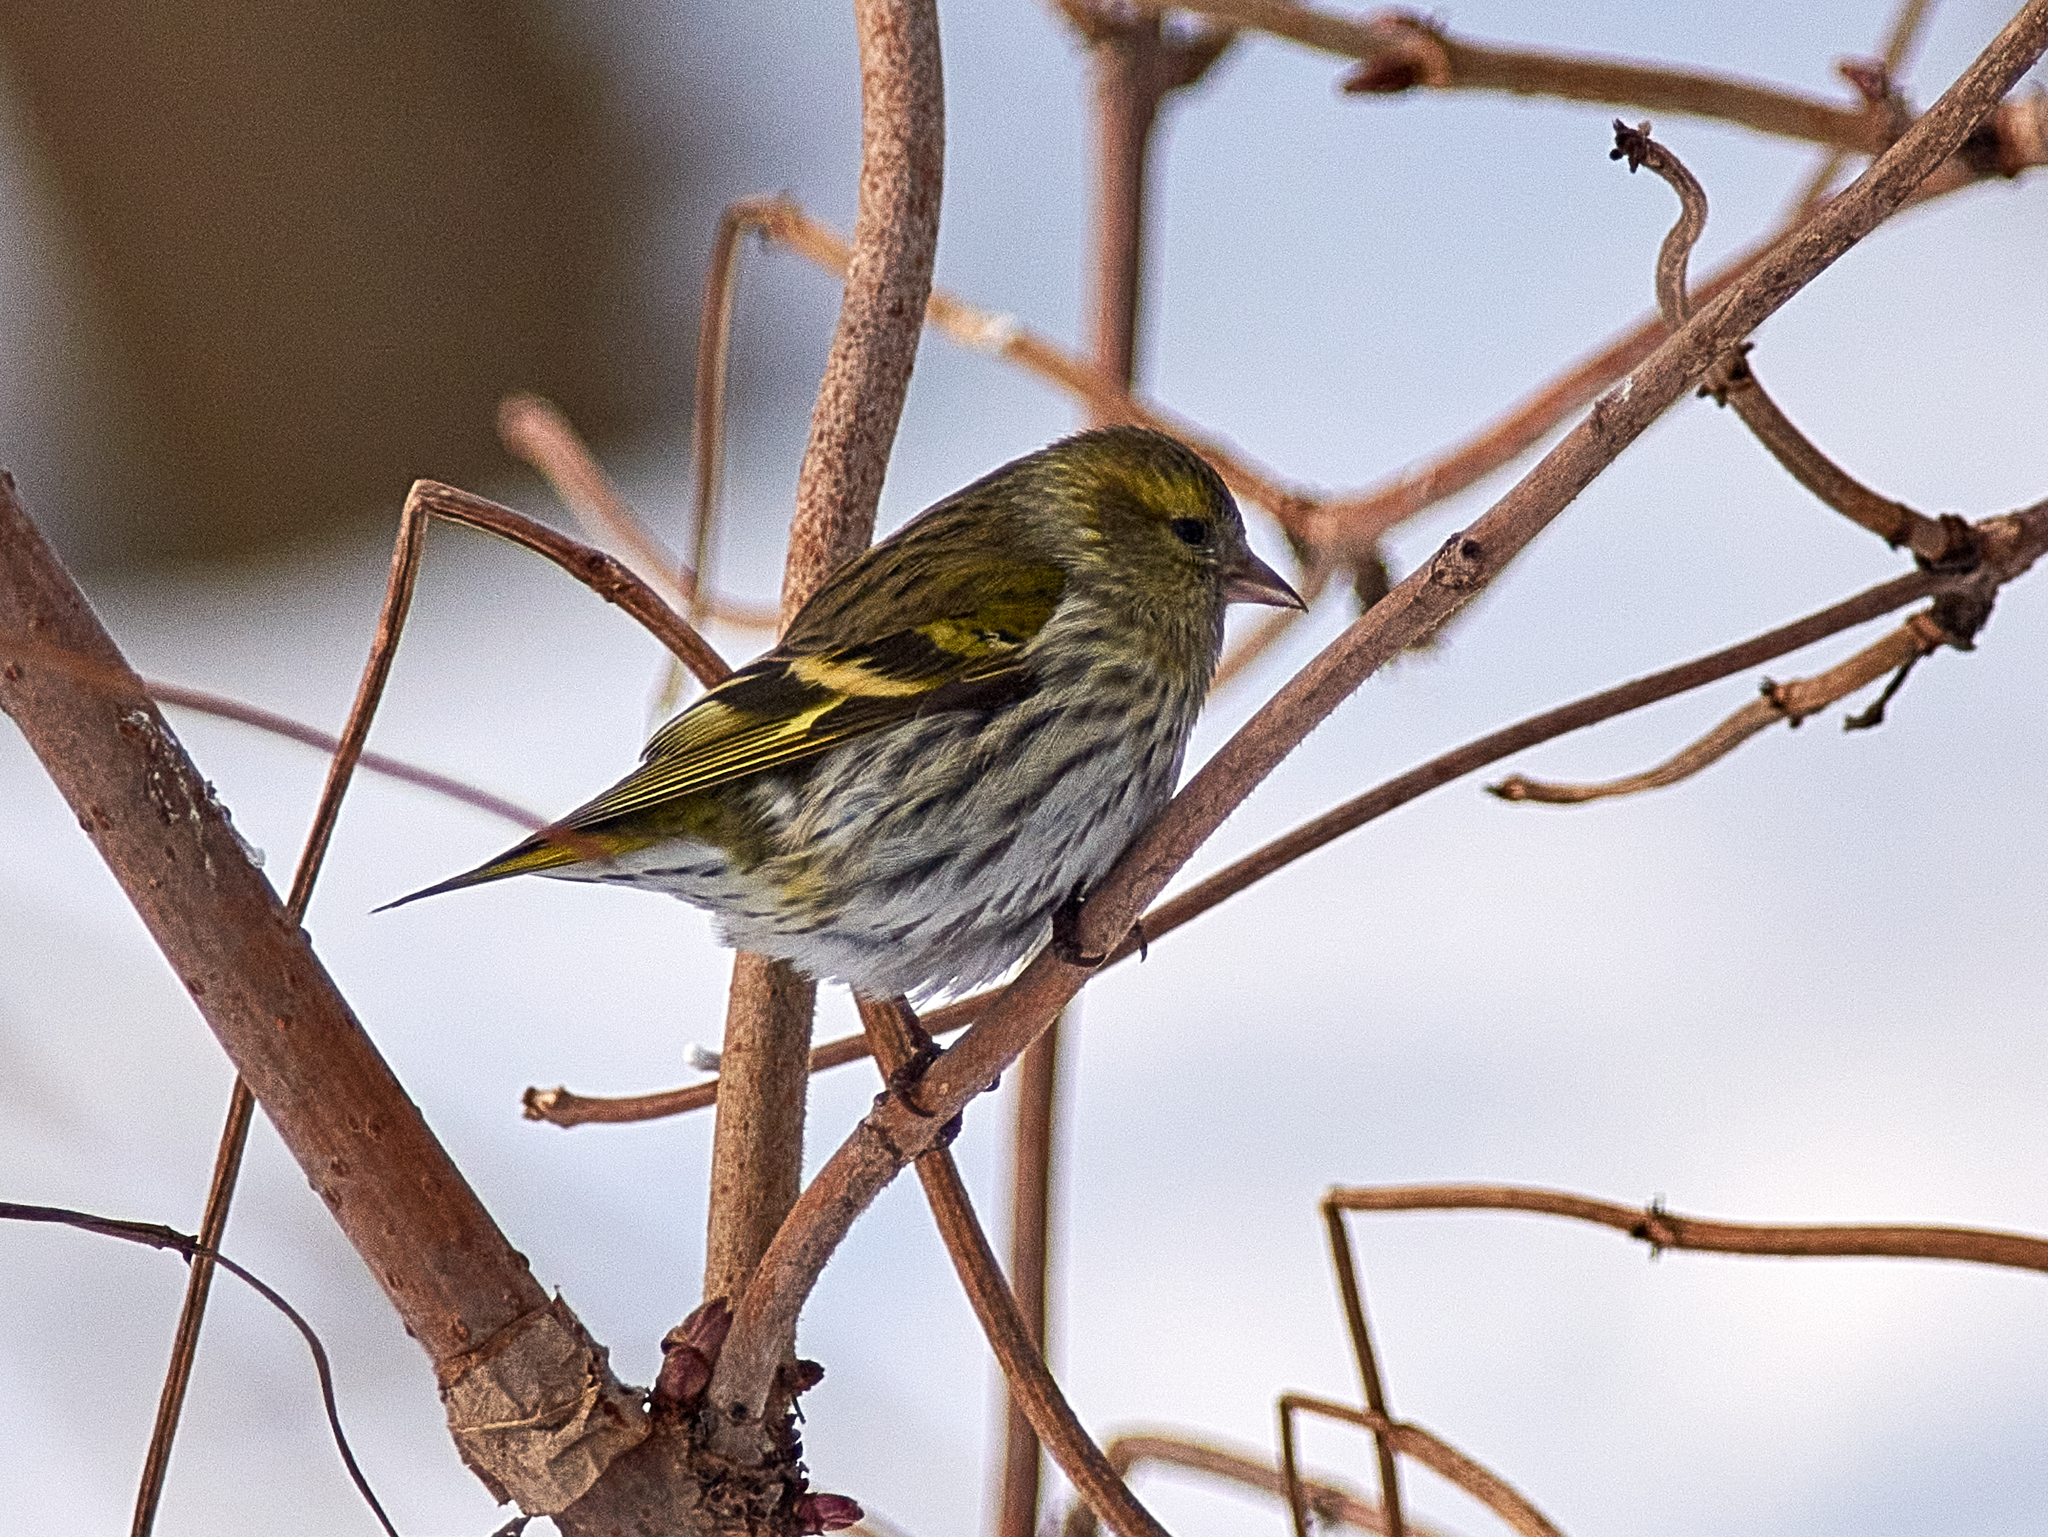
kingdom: Animalia
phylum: Chordata
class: Aves
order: Passeriformes
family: Fringillidae
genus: Spinus
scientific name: Spinus spinus
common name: Eurasian siskin
